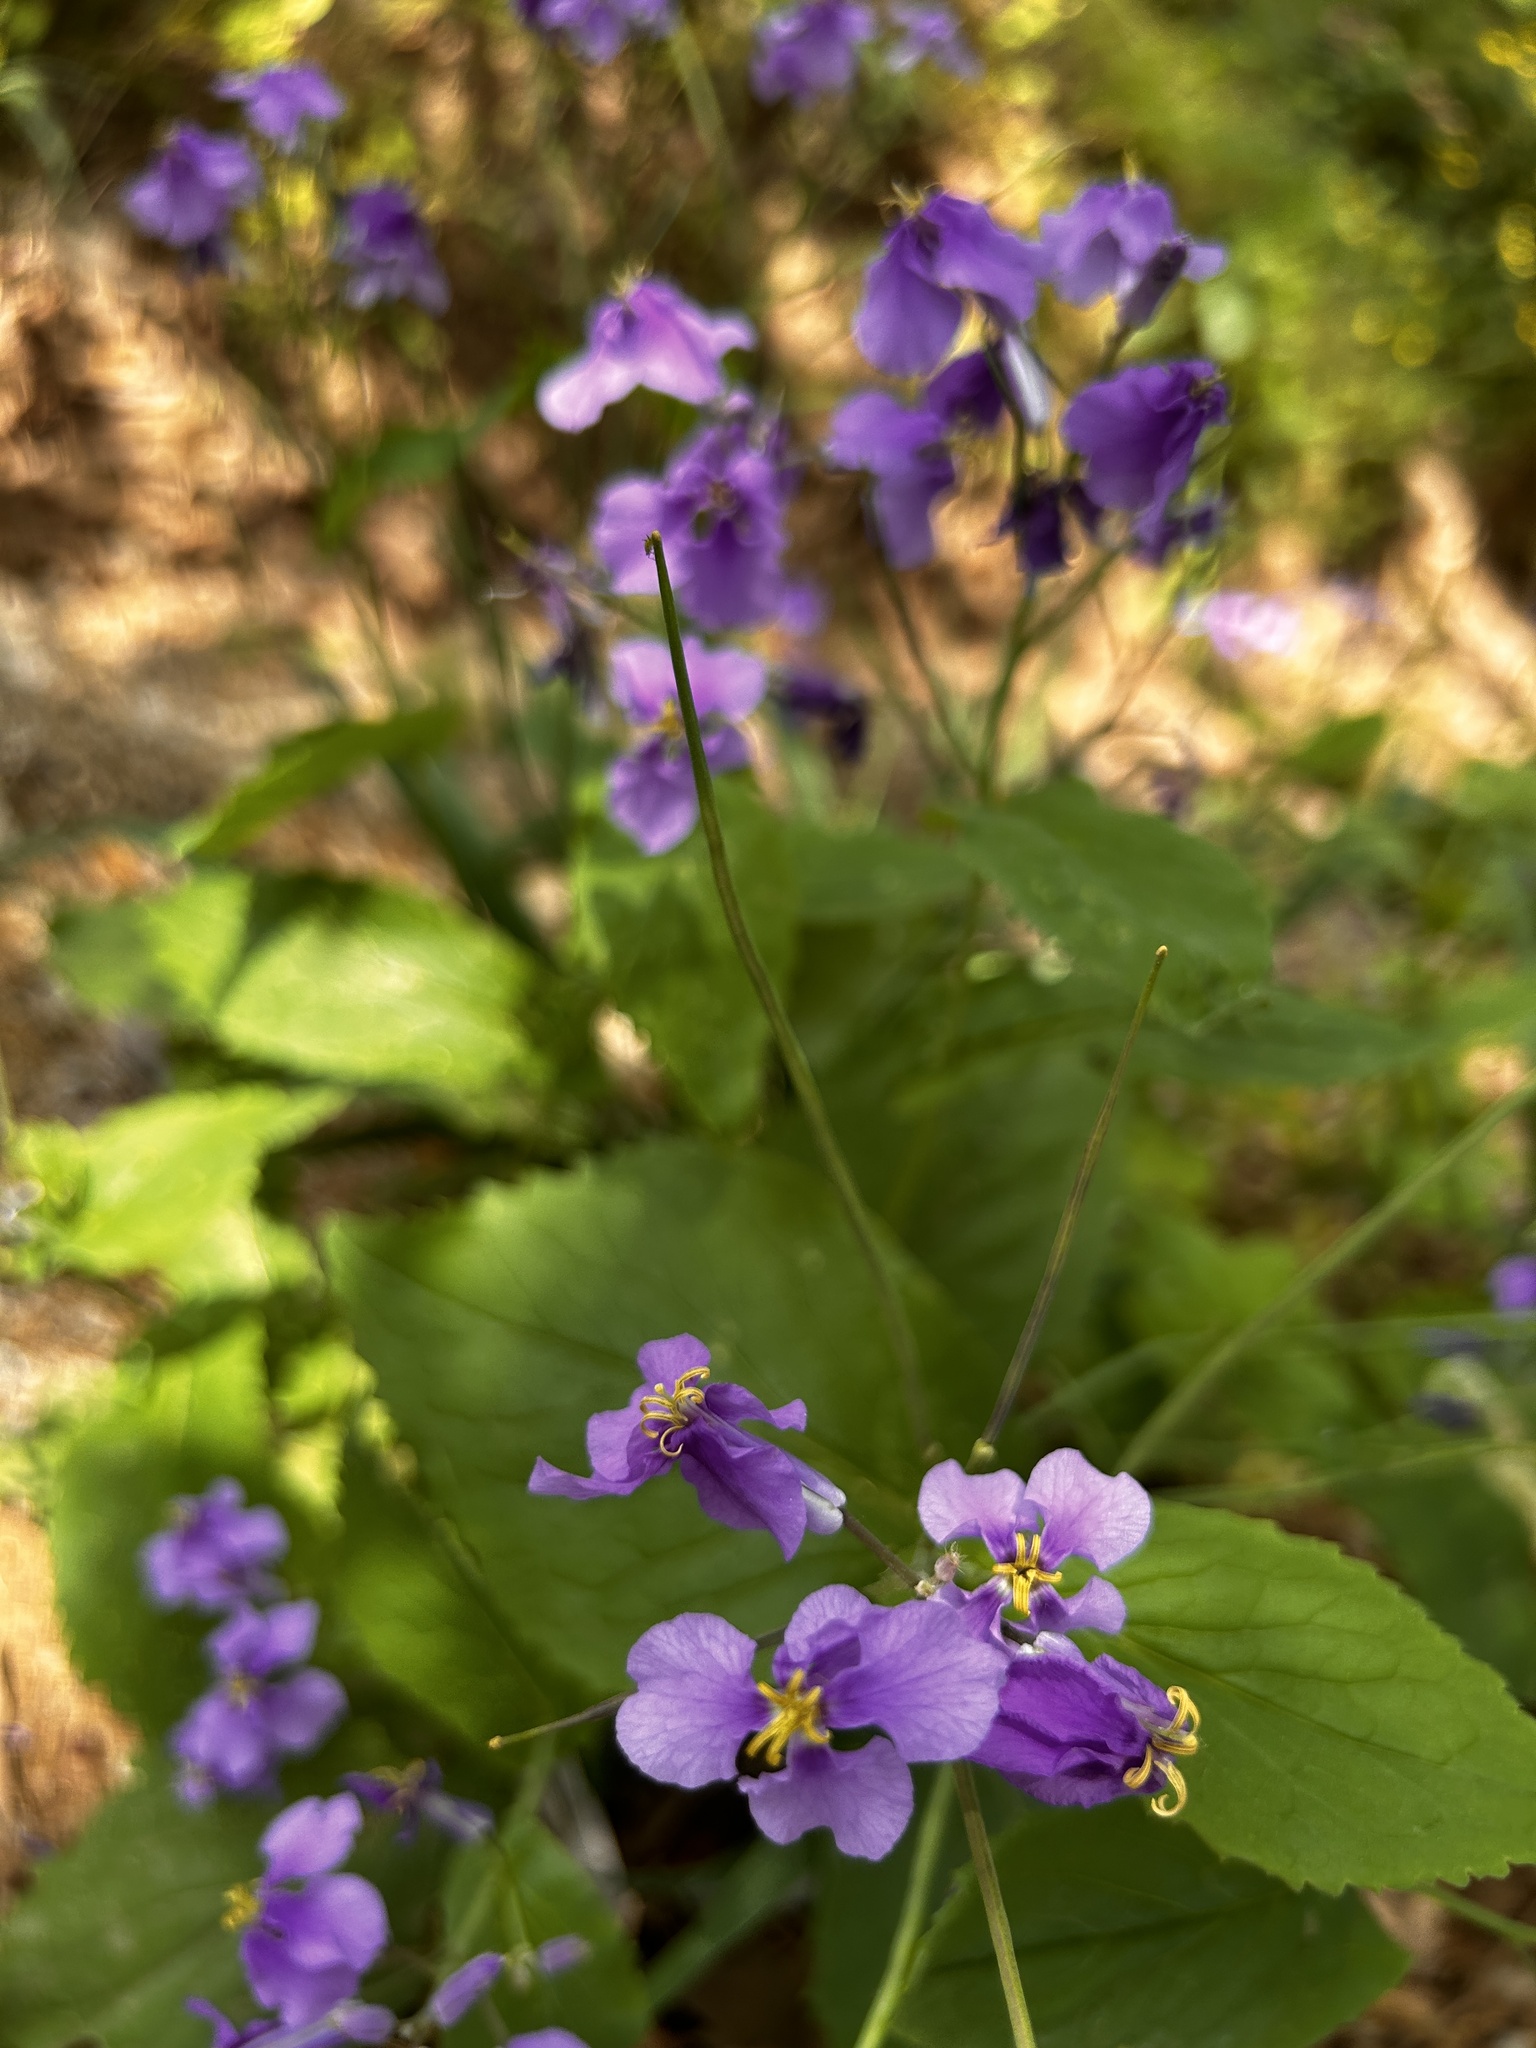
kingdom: Plantae
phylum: Tracheophyta
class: Magnoliopsida
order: Brassicales
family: Brassicaceae
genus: Orychophragmus
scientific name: Orychophragmus violaceus
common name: Mustard
